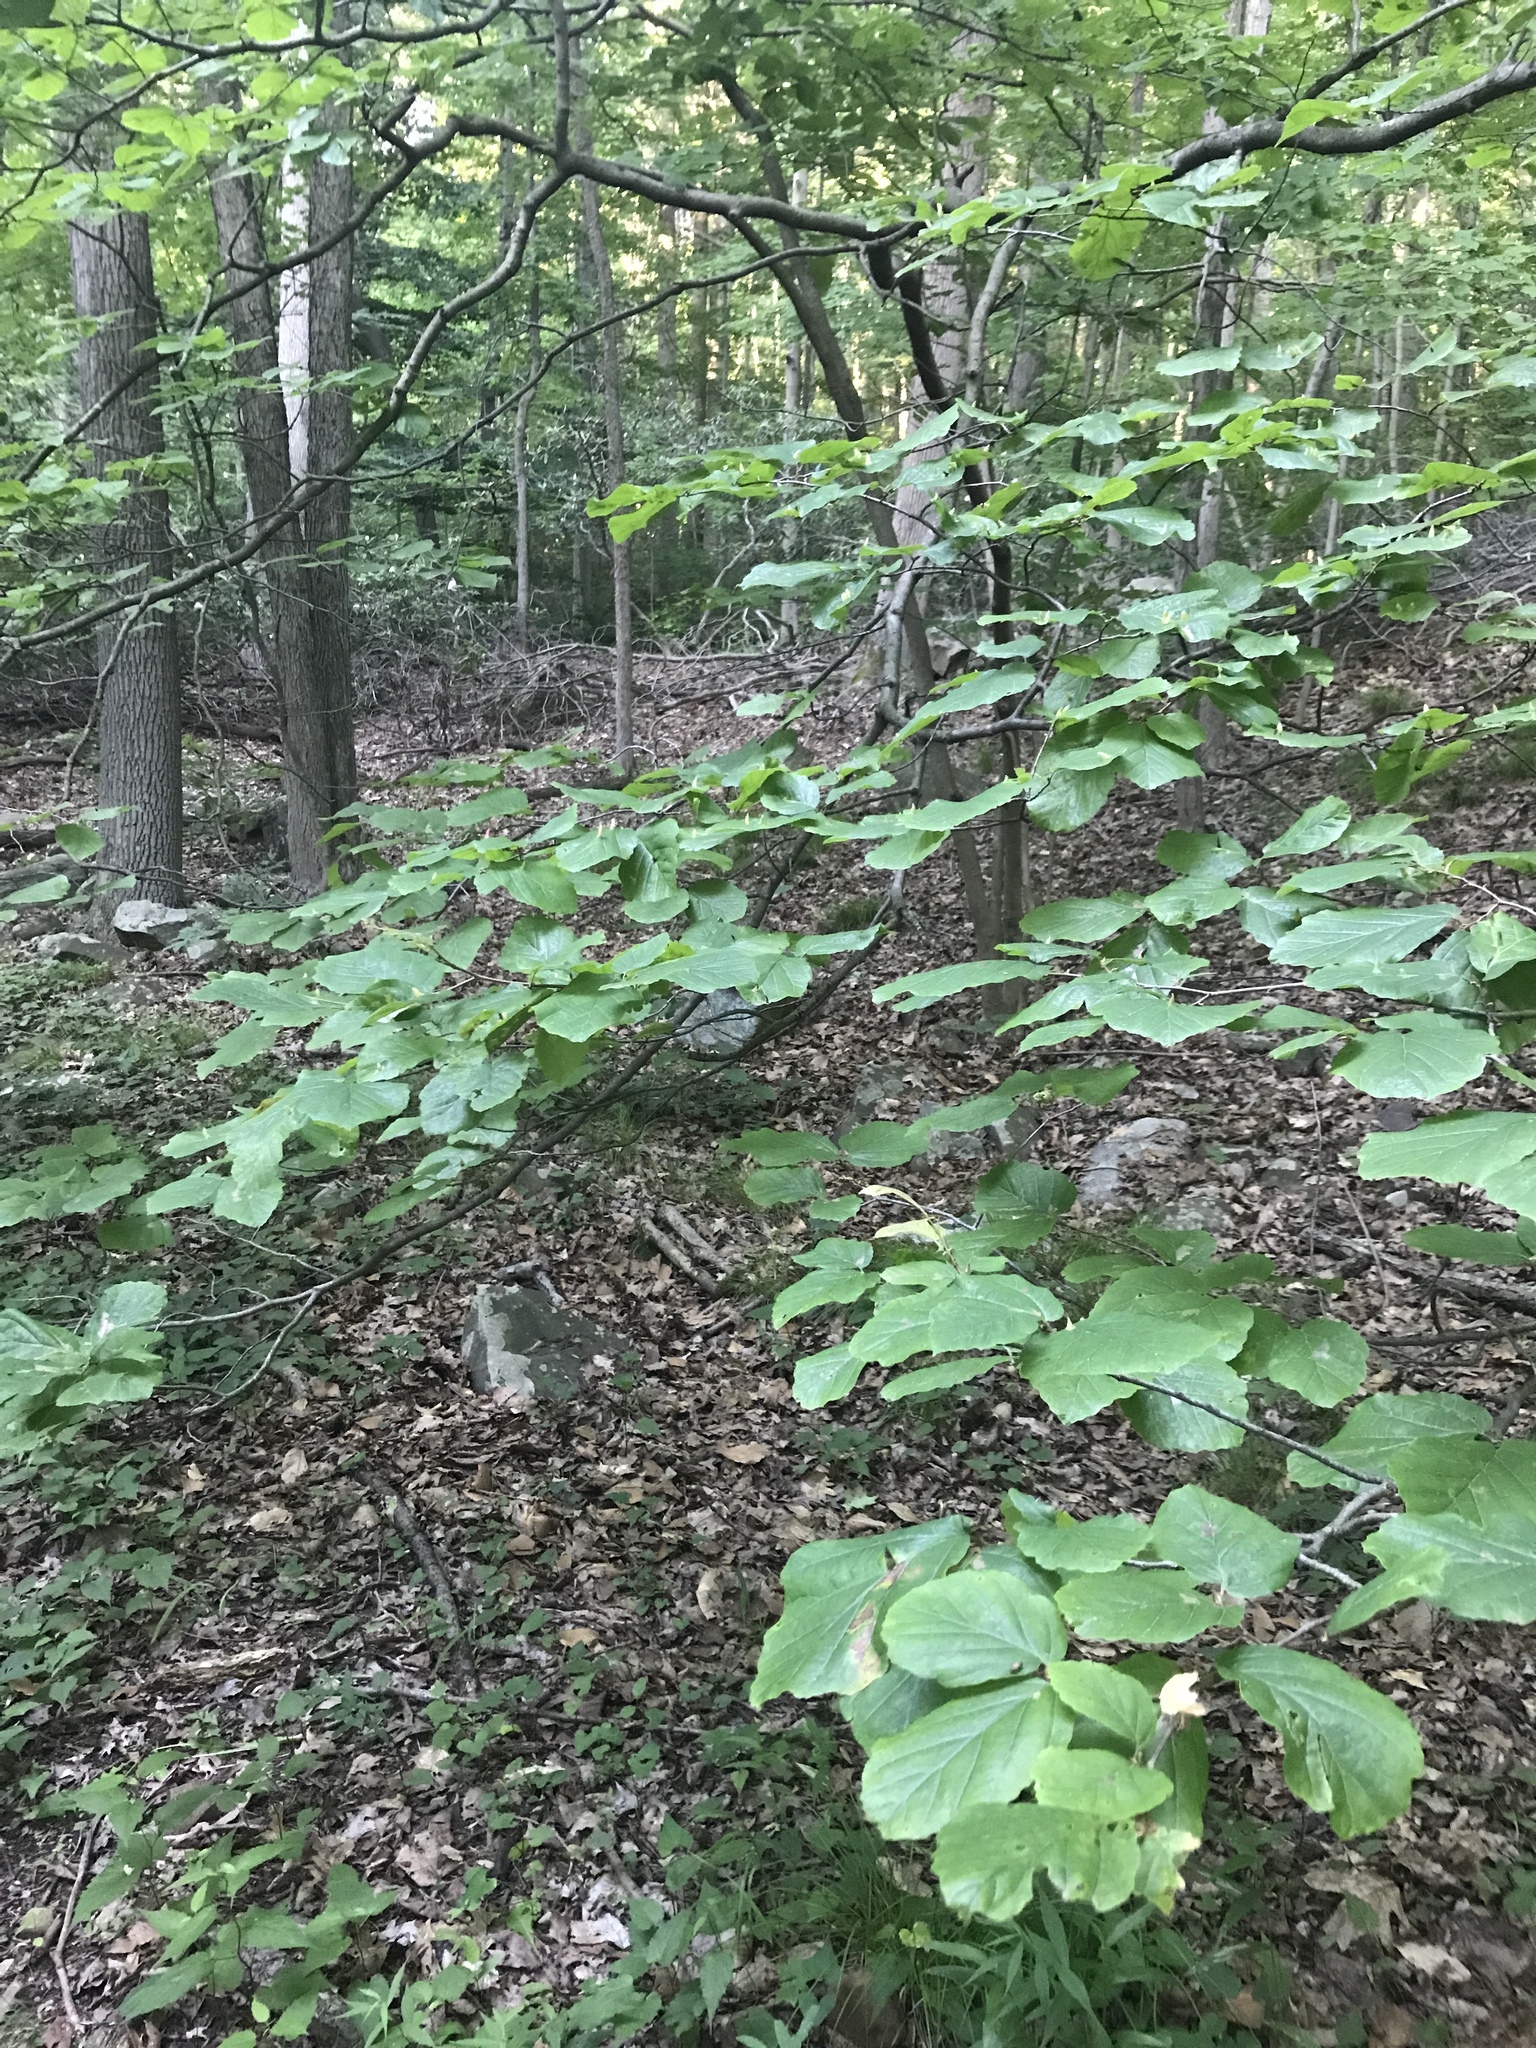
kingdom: Plantae
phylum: Tracheophyta
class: Magnoliopsida
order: Saxifragales
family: Hamamelidaceae
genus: Hamamelis
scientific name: Hamamelis virginiana
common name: Witch-hazel
